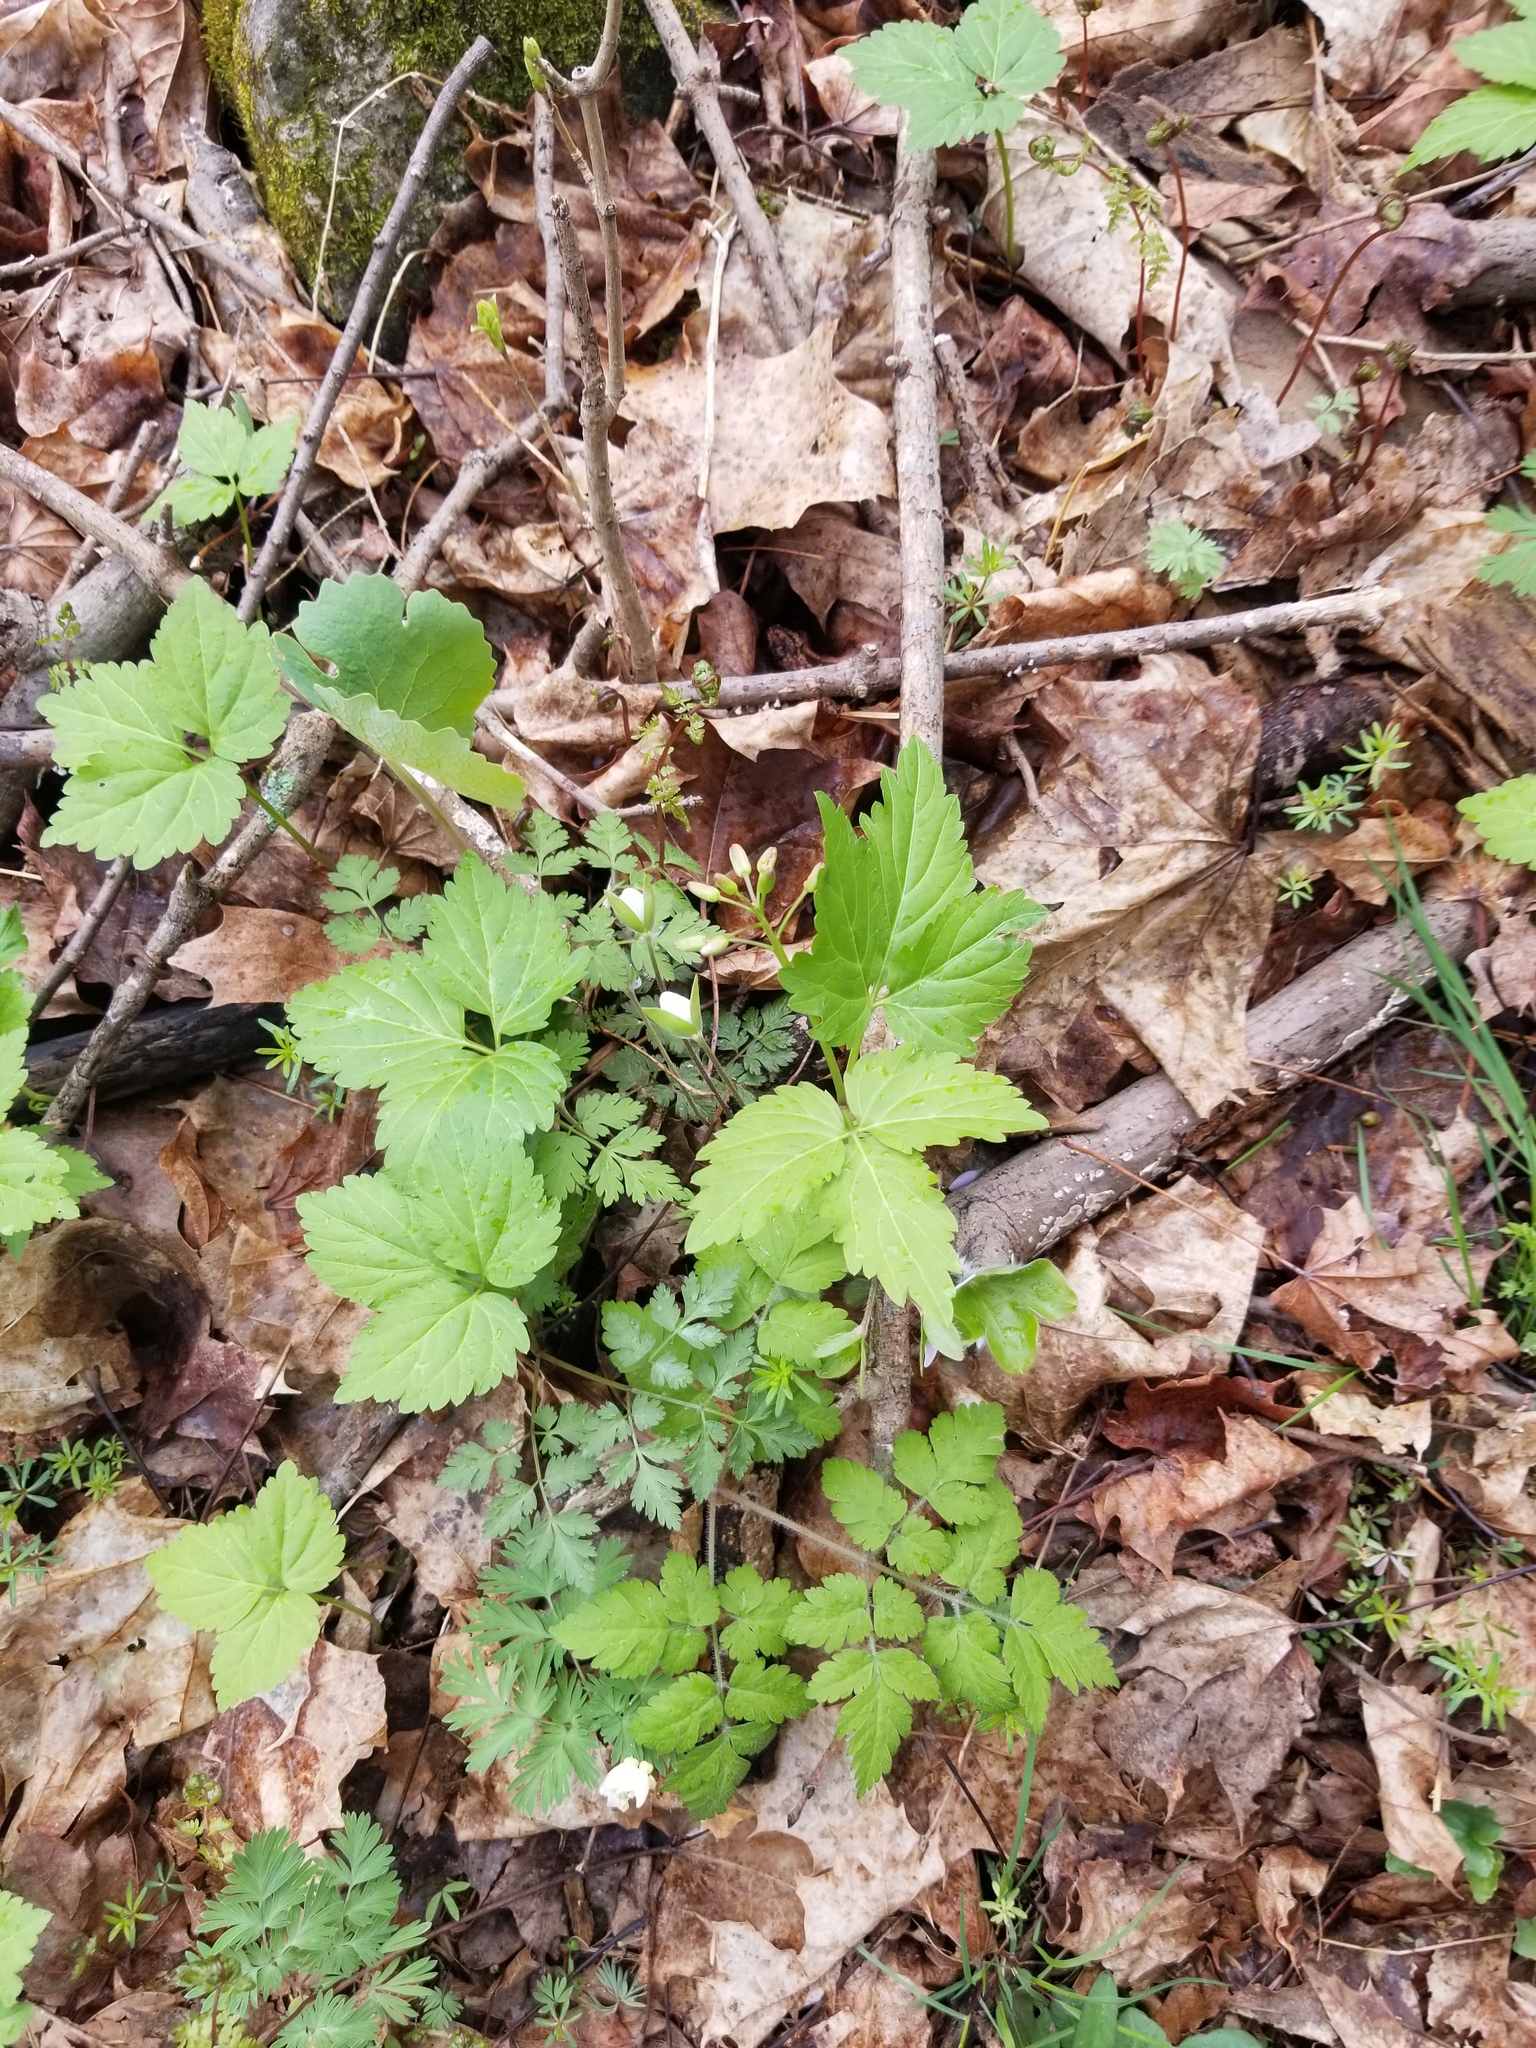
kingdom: Plantae
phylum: Tracheophyta
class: Magnoliopsida
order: Brassicales
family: Brassicaceae
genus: Cardamine
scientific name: Cardamine diphylla
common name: Broad-leaved toothwort
